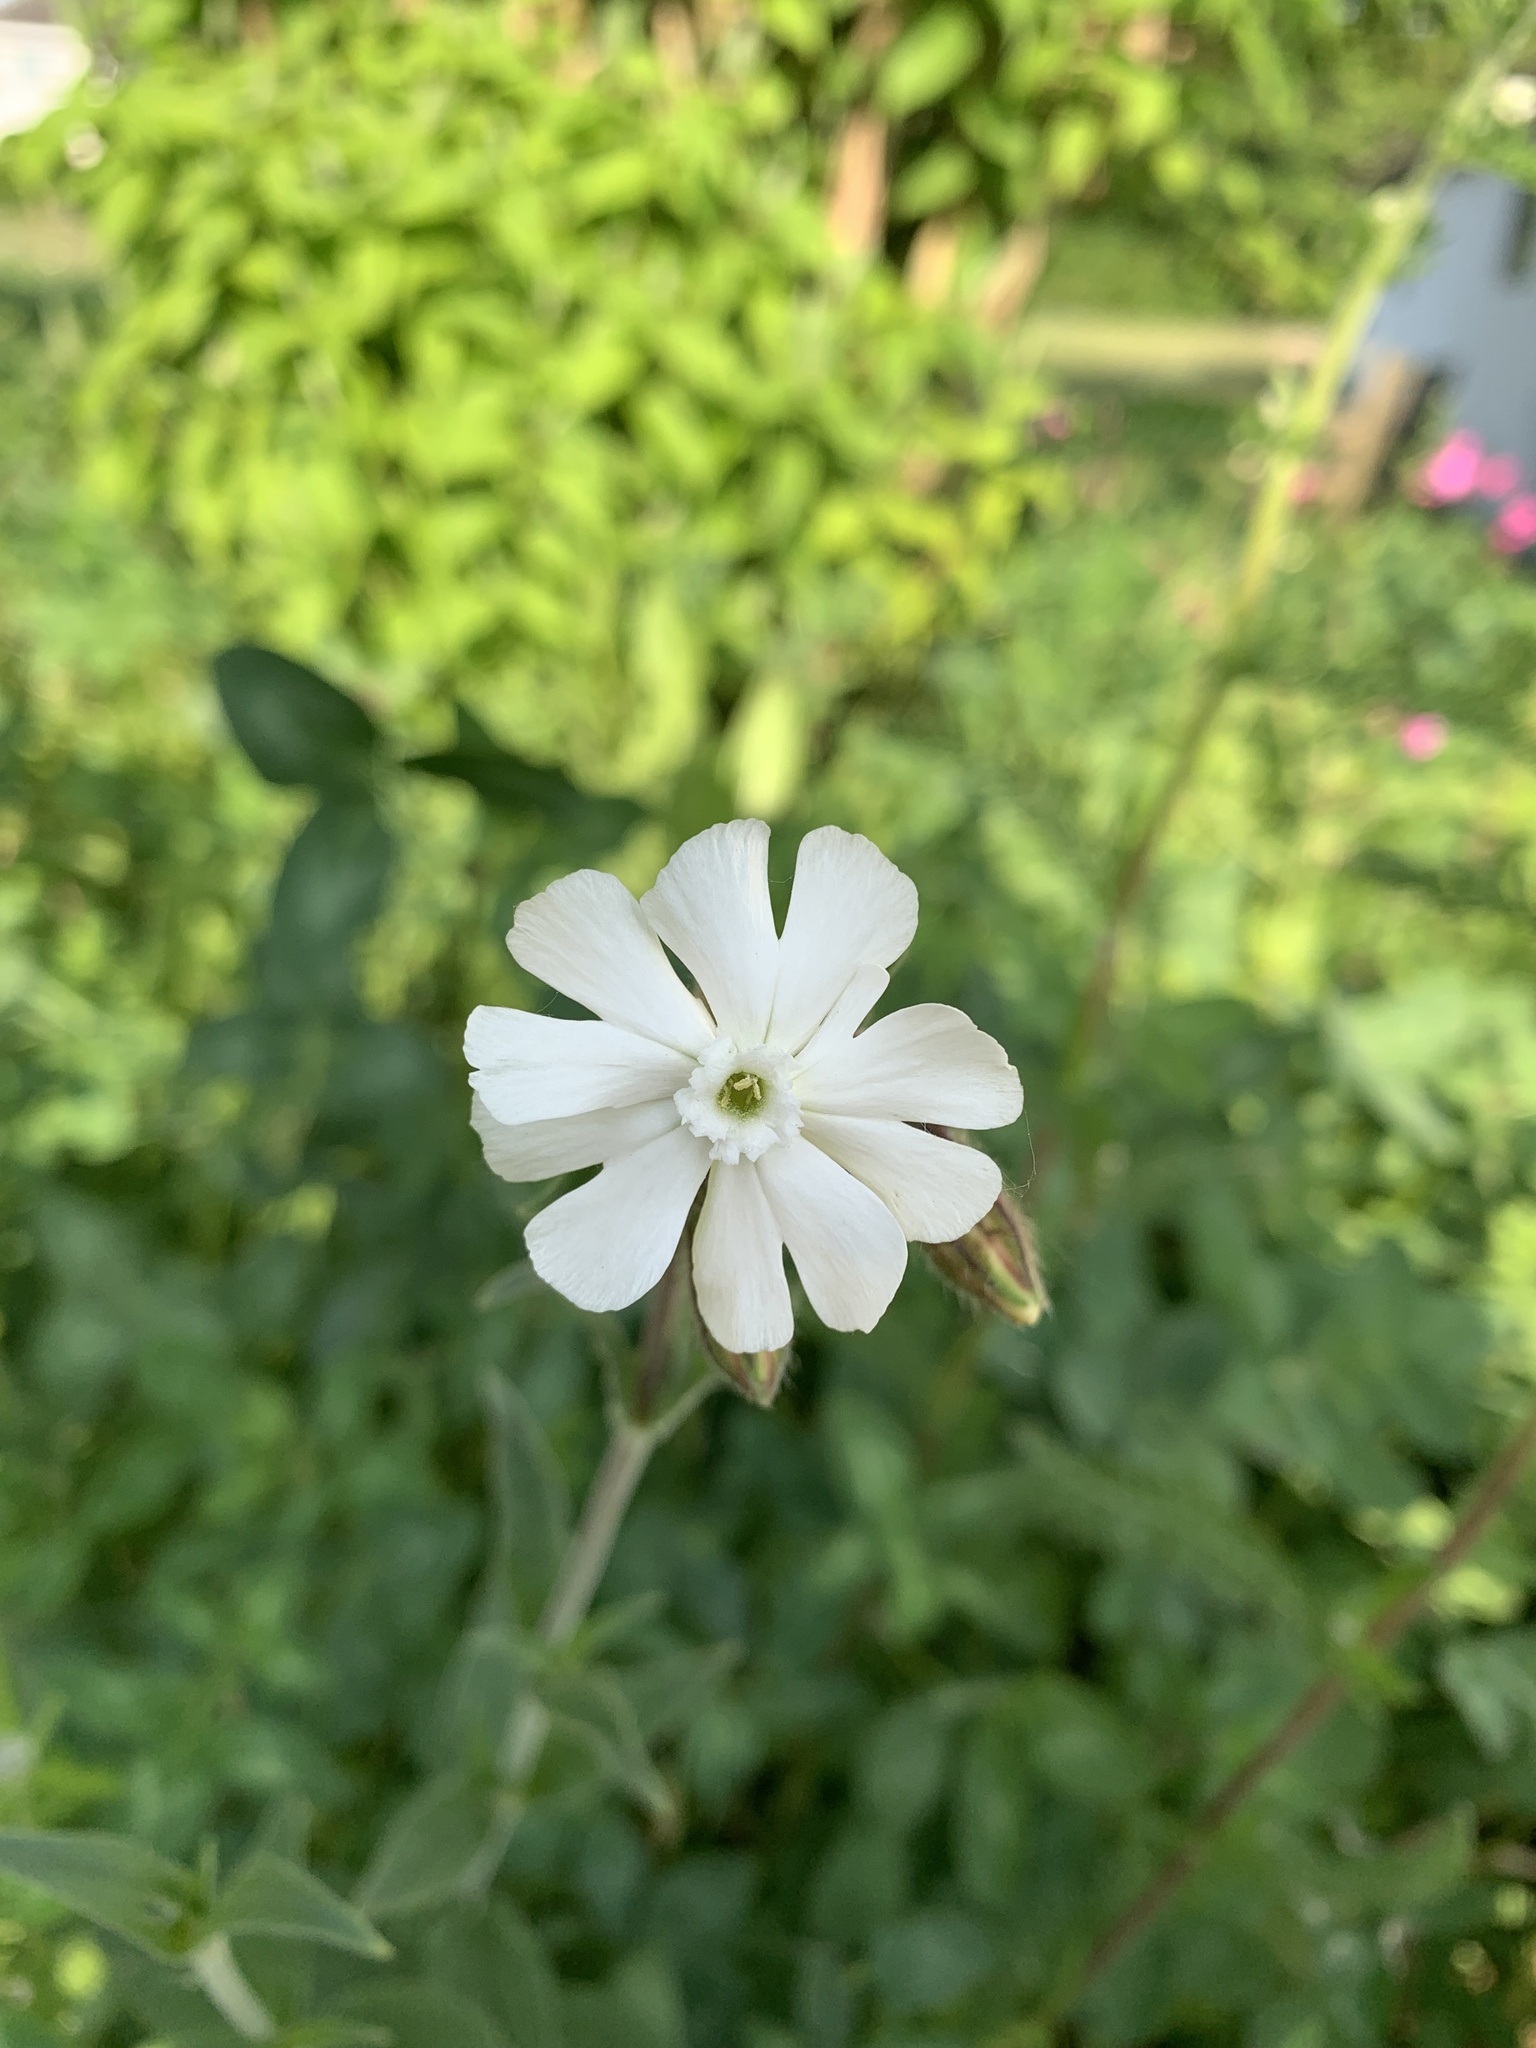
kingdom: Plantae
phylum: Tracheophyta
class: Magnoliopsida
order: Caryophyllales
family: Caryophyllaceae
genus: Silene
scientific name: Silene latifolia
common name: White campion
